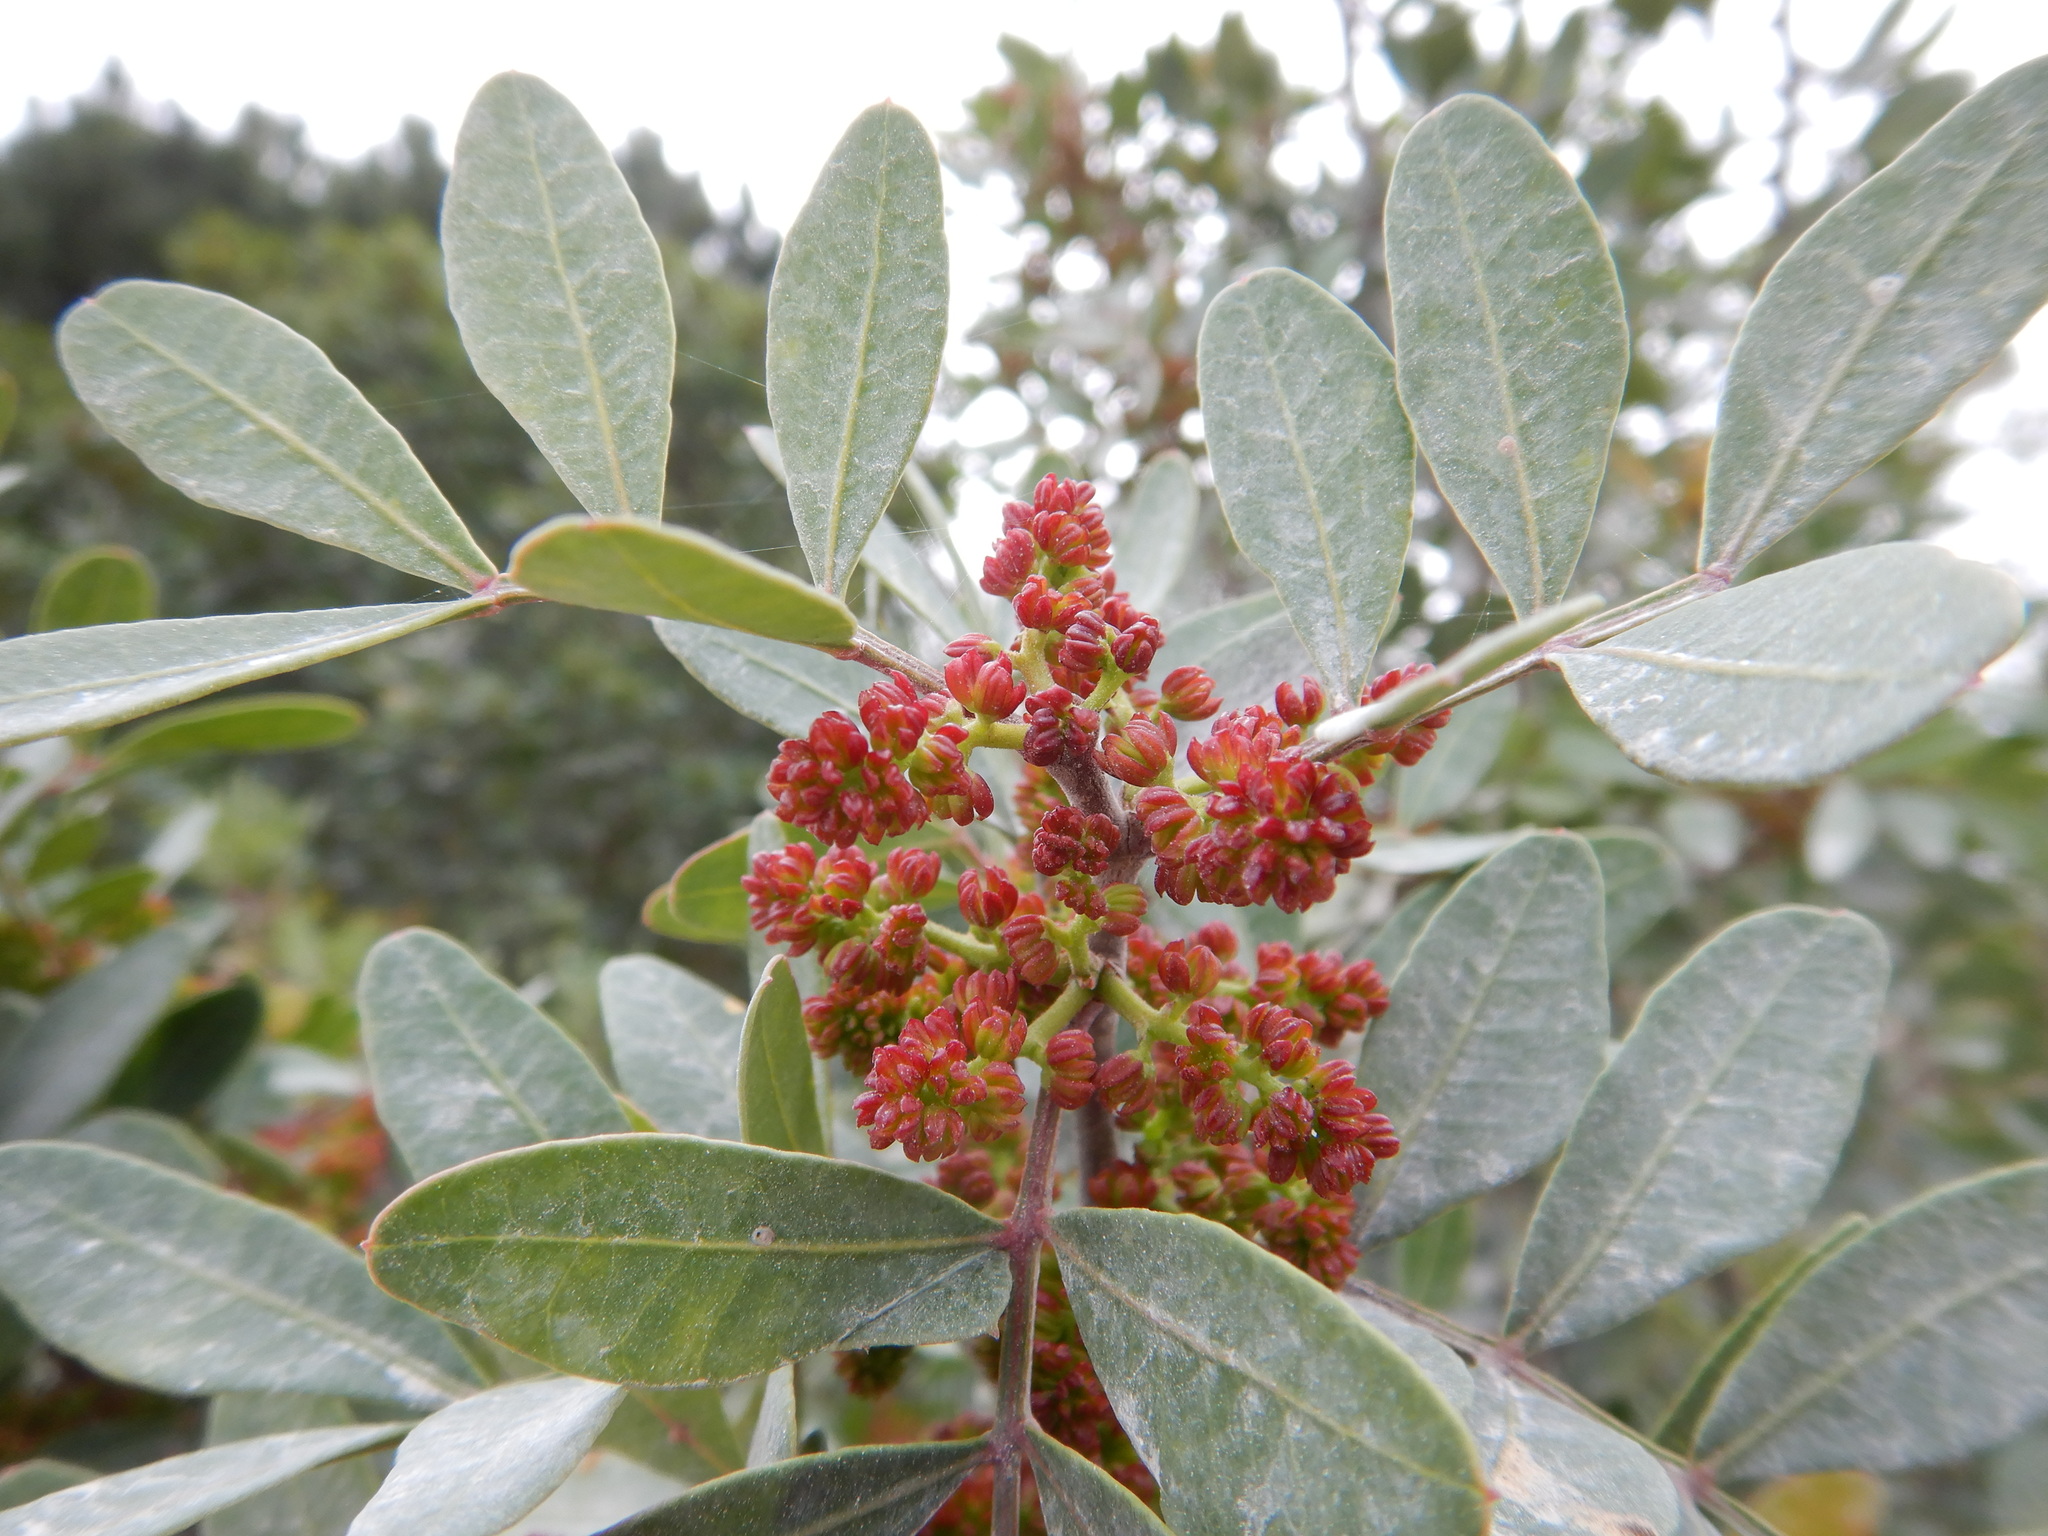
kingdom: Plantae
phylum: Tracheophyta
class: Magnoliopsida
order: Sapindales
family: Anacardiaceae
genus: Pistacia
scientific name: Pistacia lentiscus
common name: Lentisk
